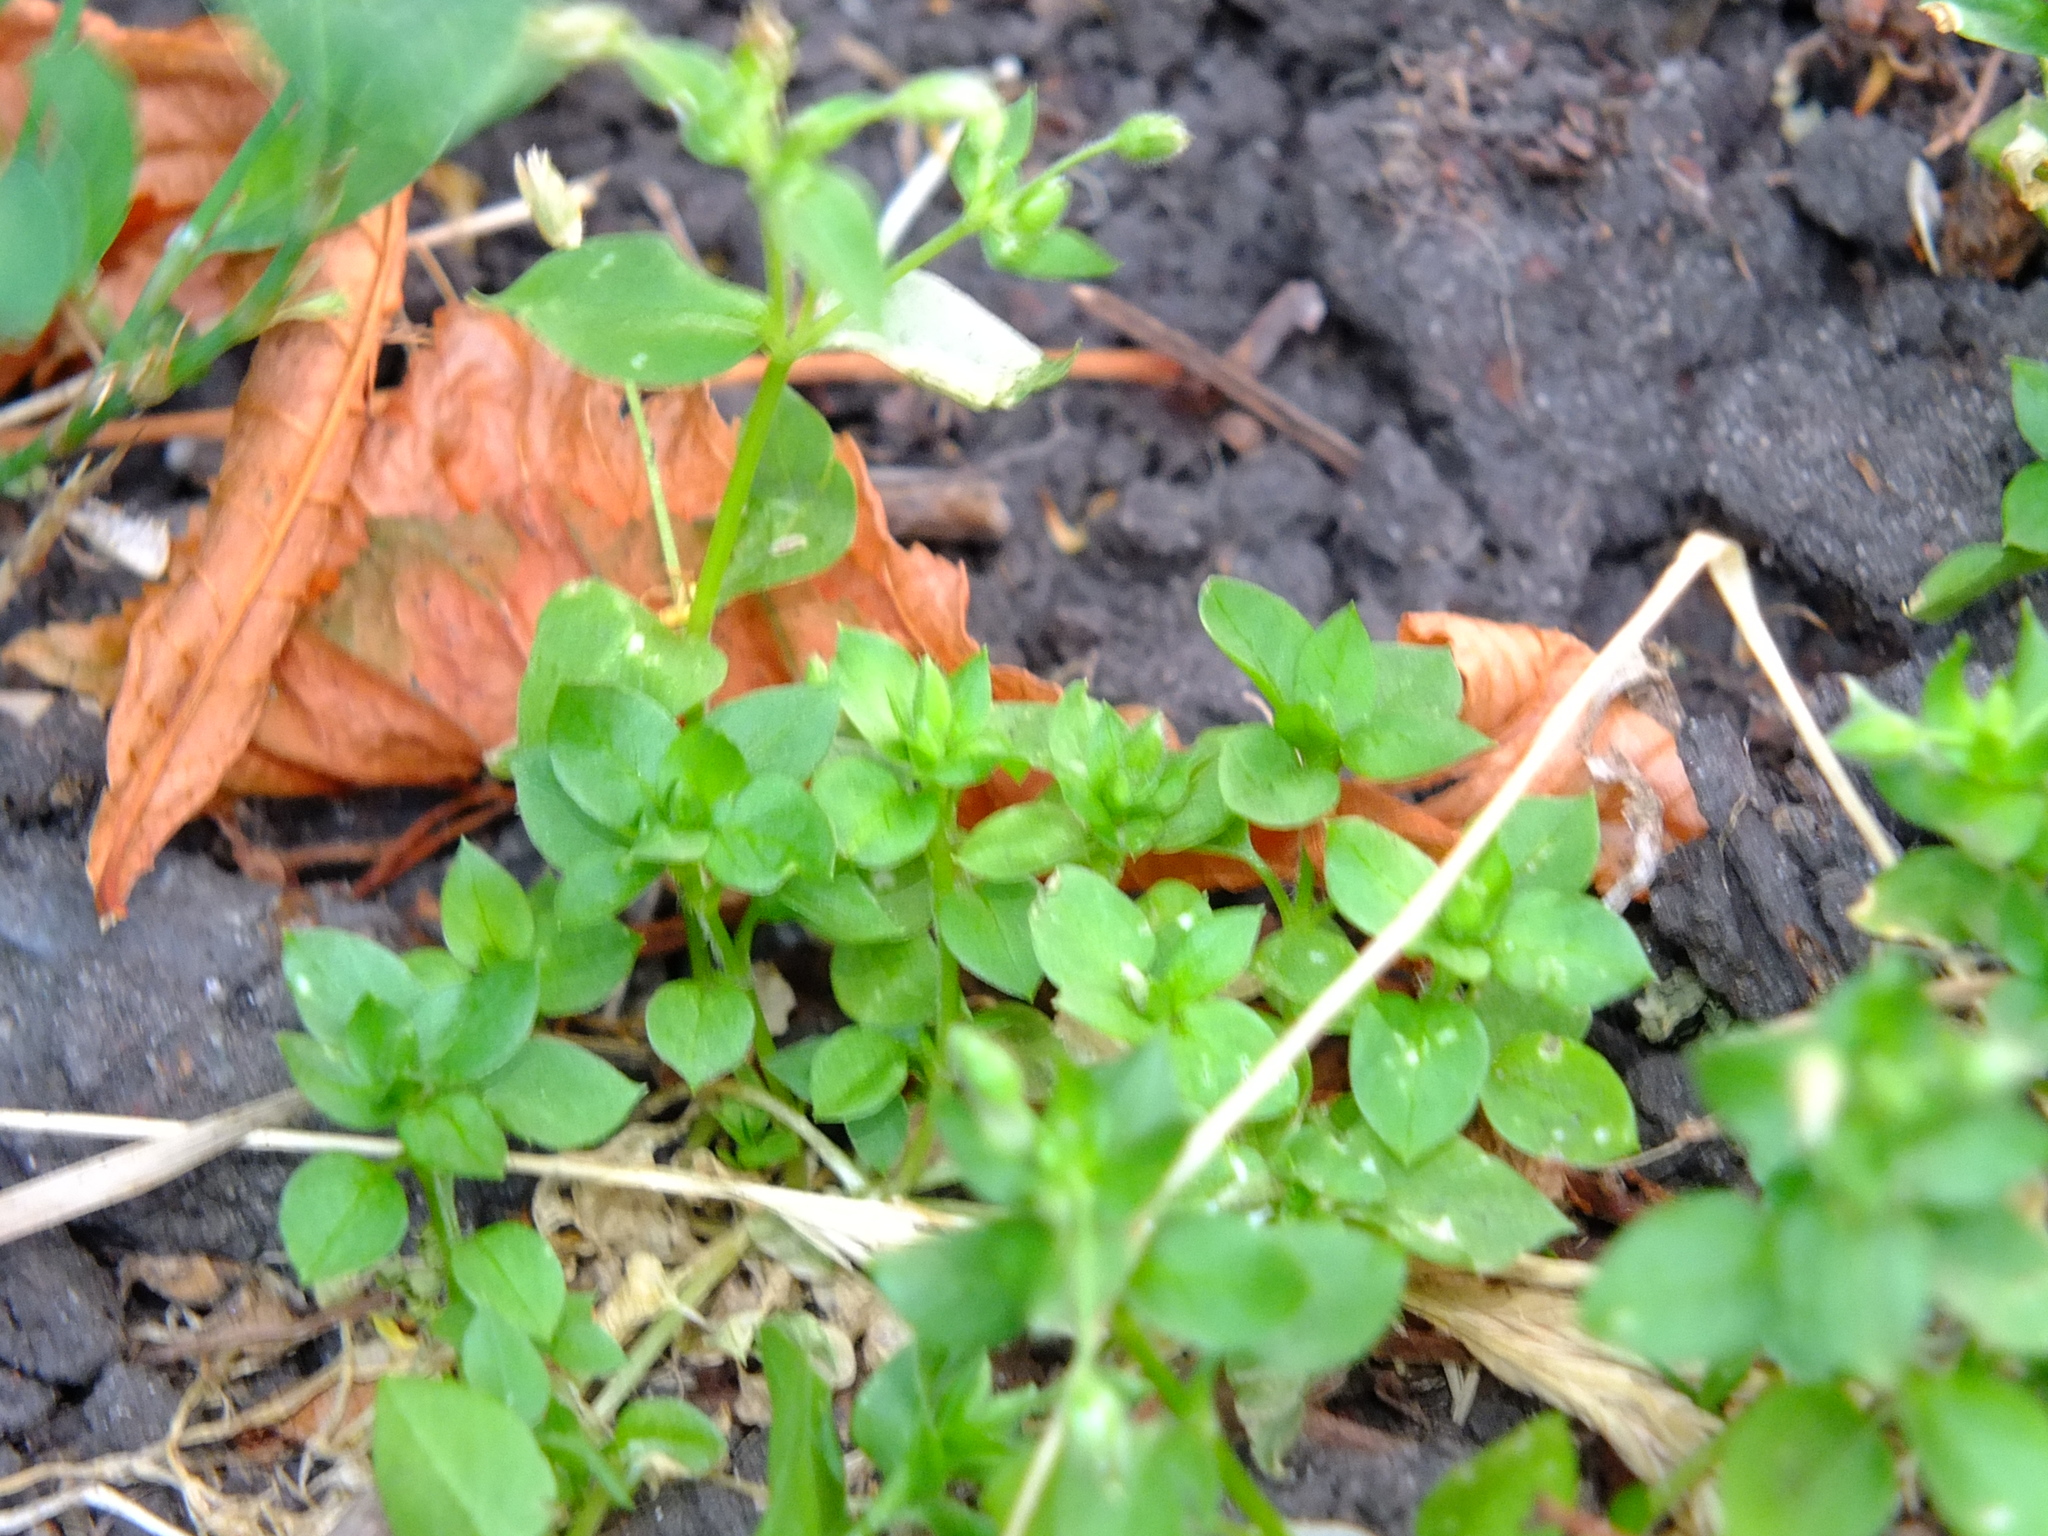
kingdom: Plantae
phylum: Tracheophyta
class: Magnoliopsida
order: Caryophyllales
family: Caryophyllaceae
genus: Stellaria
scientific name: Stellaria media
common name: Common chickweed
